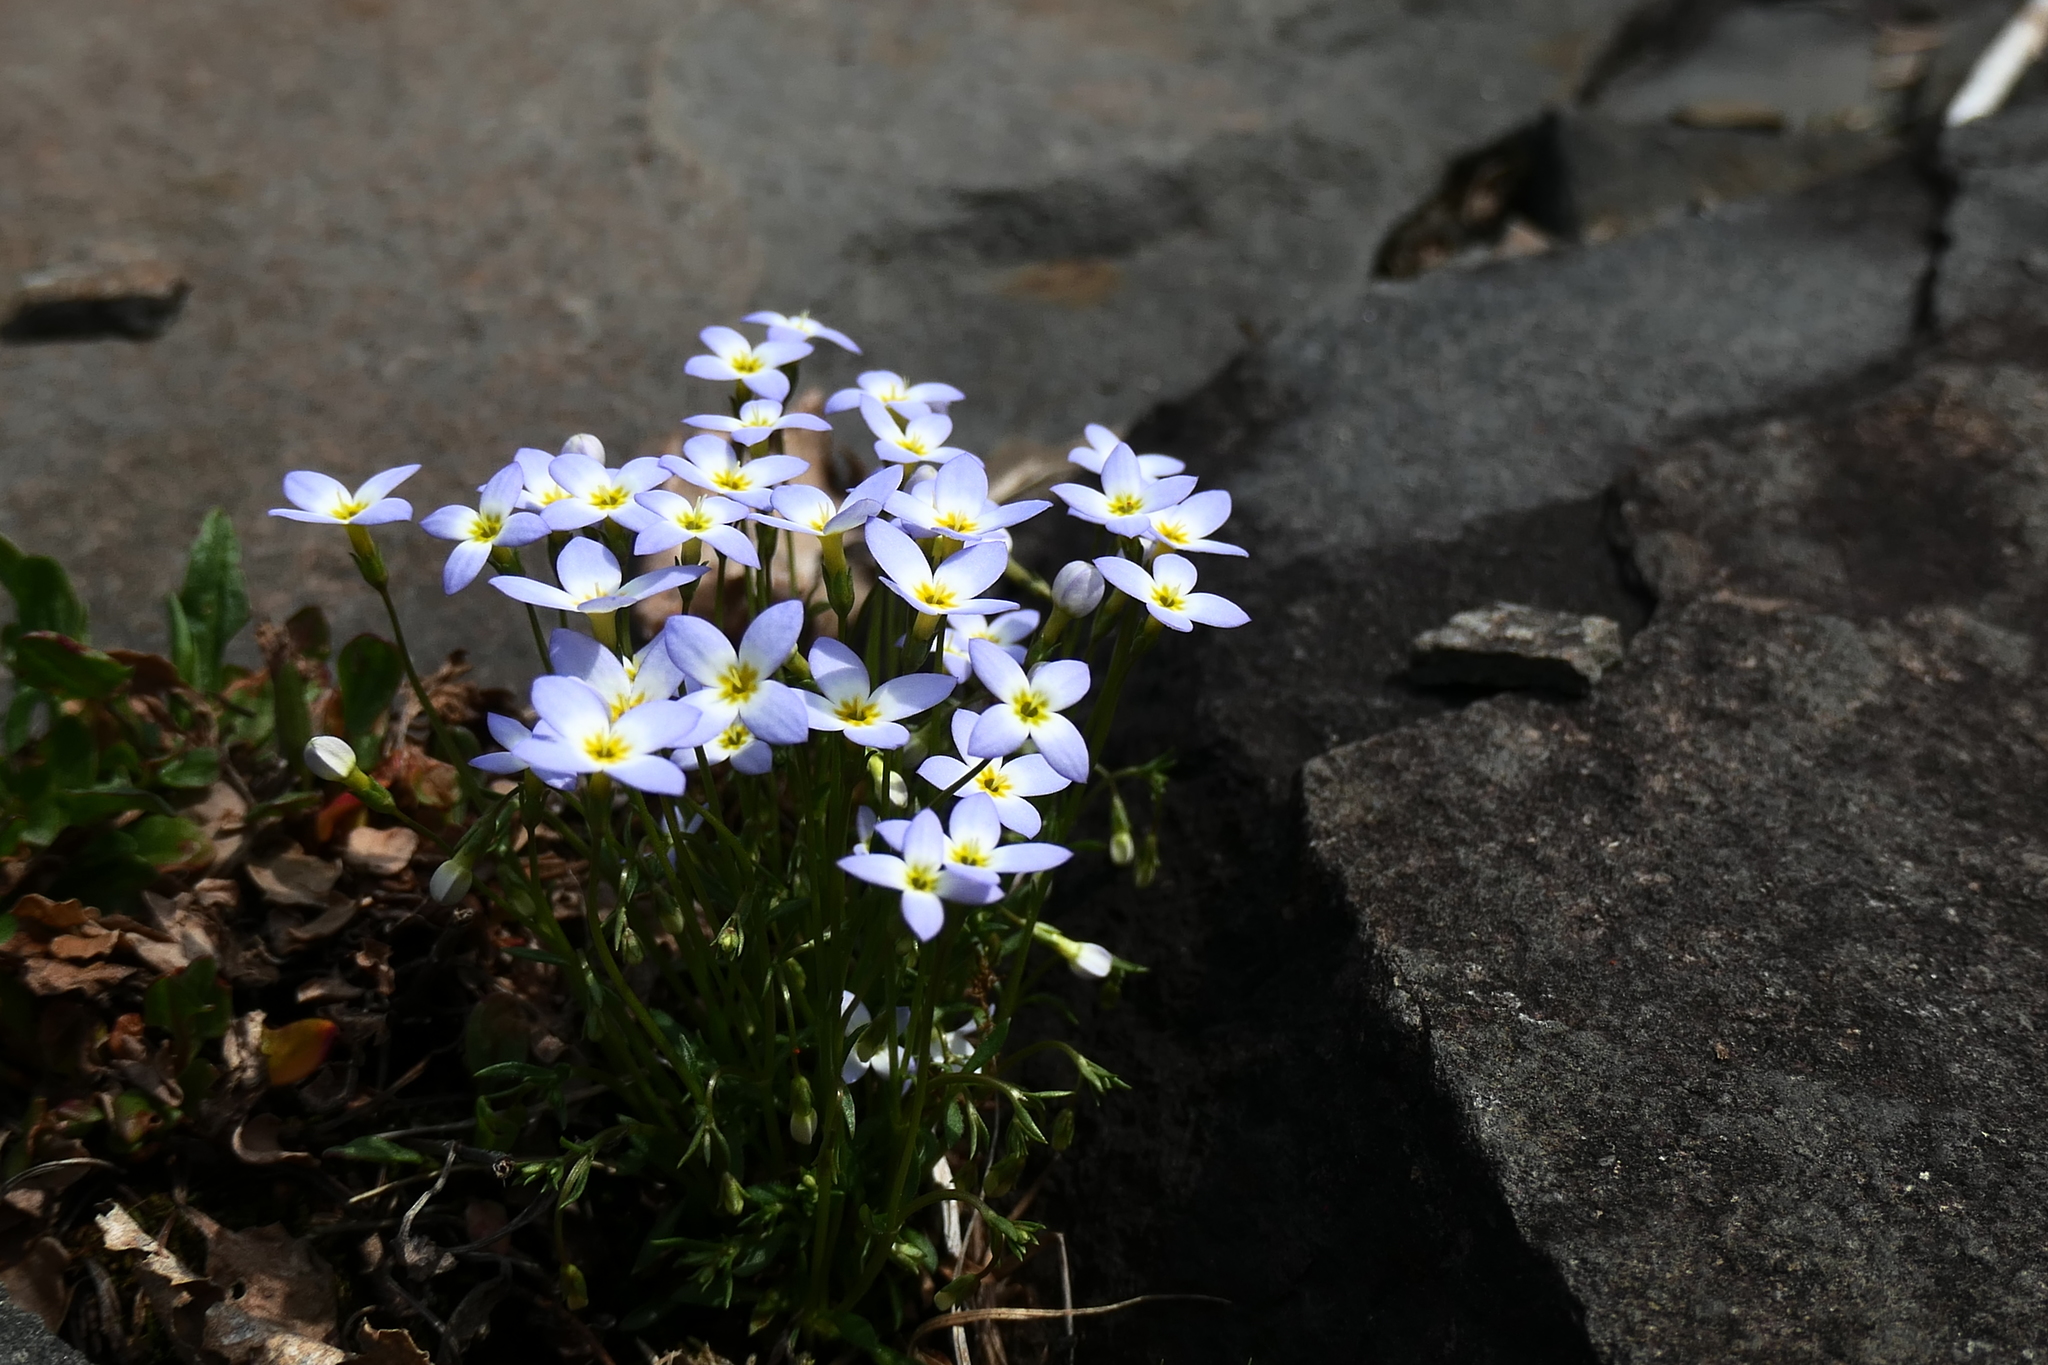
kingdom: Plantae
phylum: Tracheophyta
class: Magnoliopsida
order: Gentianales
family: Rubiaceae
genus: Houstonia
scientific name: Houstonia caerulea
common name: Bluets
